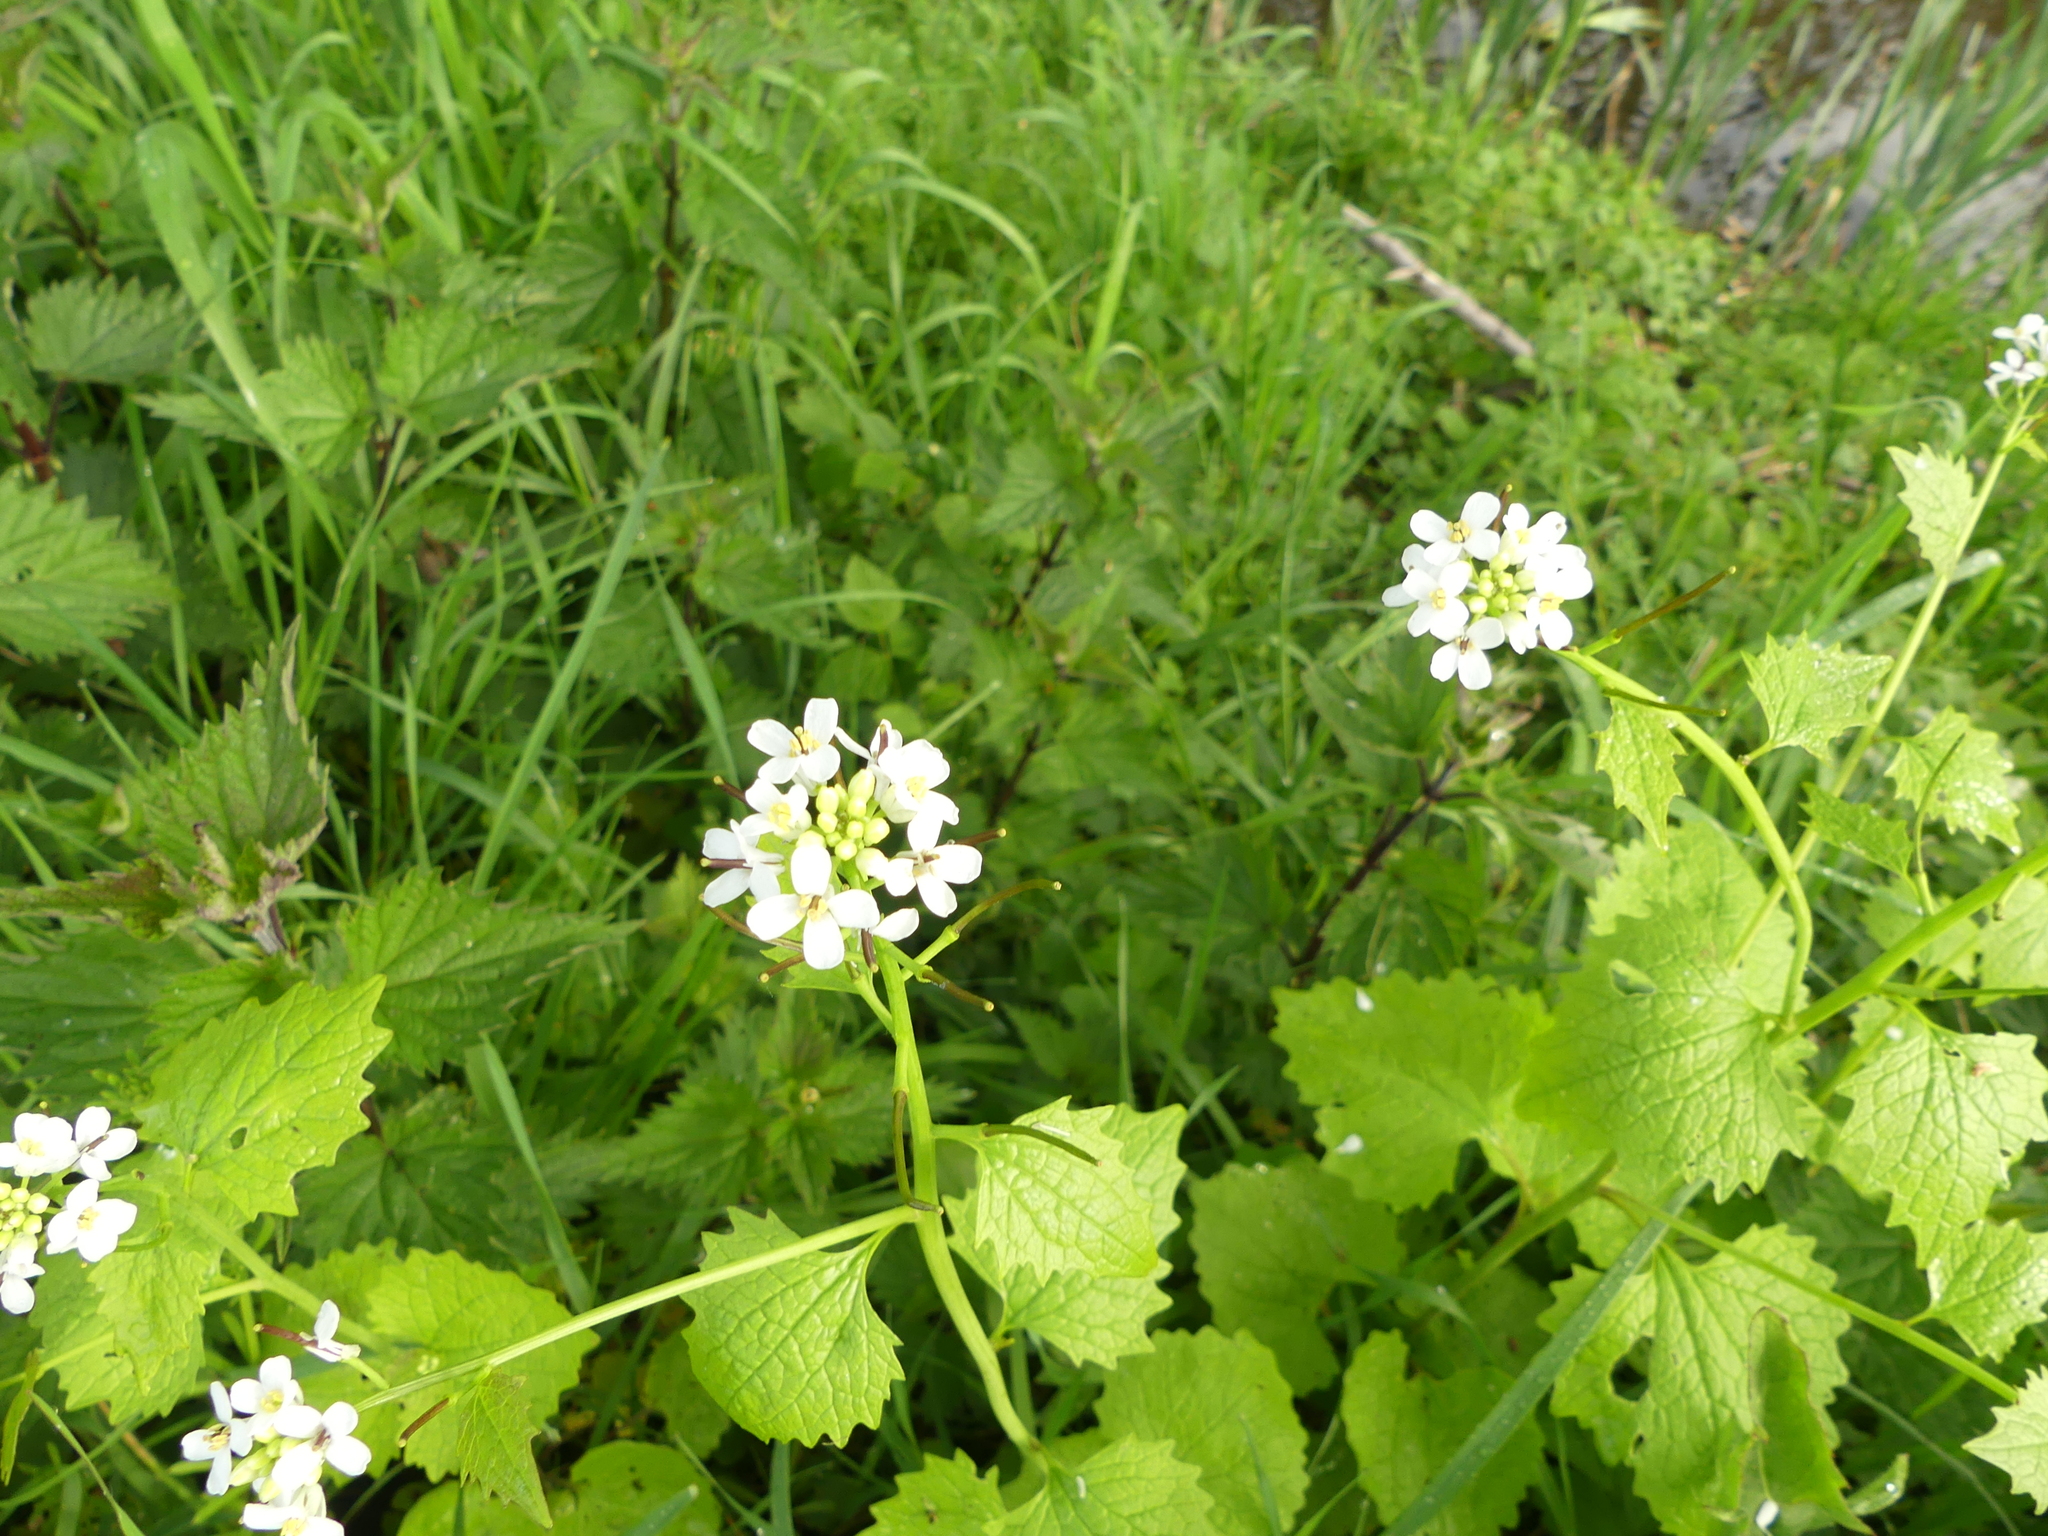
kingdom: Plantae
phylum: Tracheophyta
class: Magnoliopsida
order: Brassicales
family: Brassicaceae
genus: Alliaria
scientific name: Alliaria petiolata
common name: Garlic mustard
